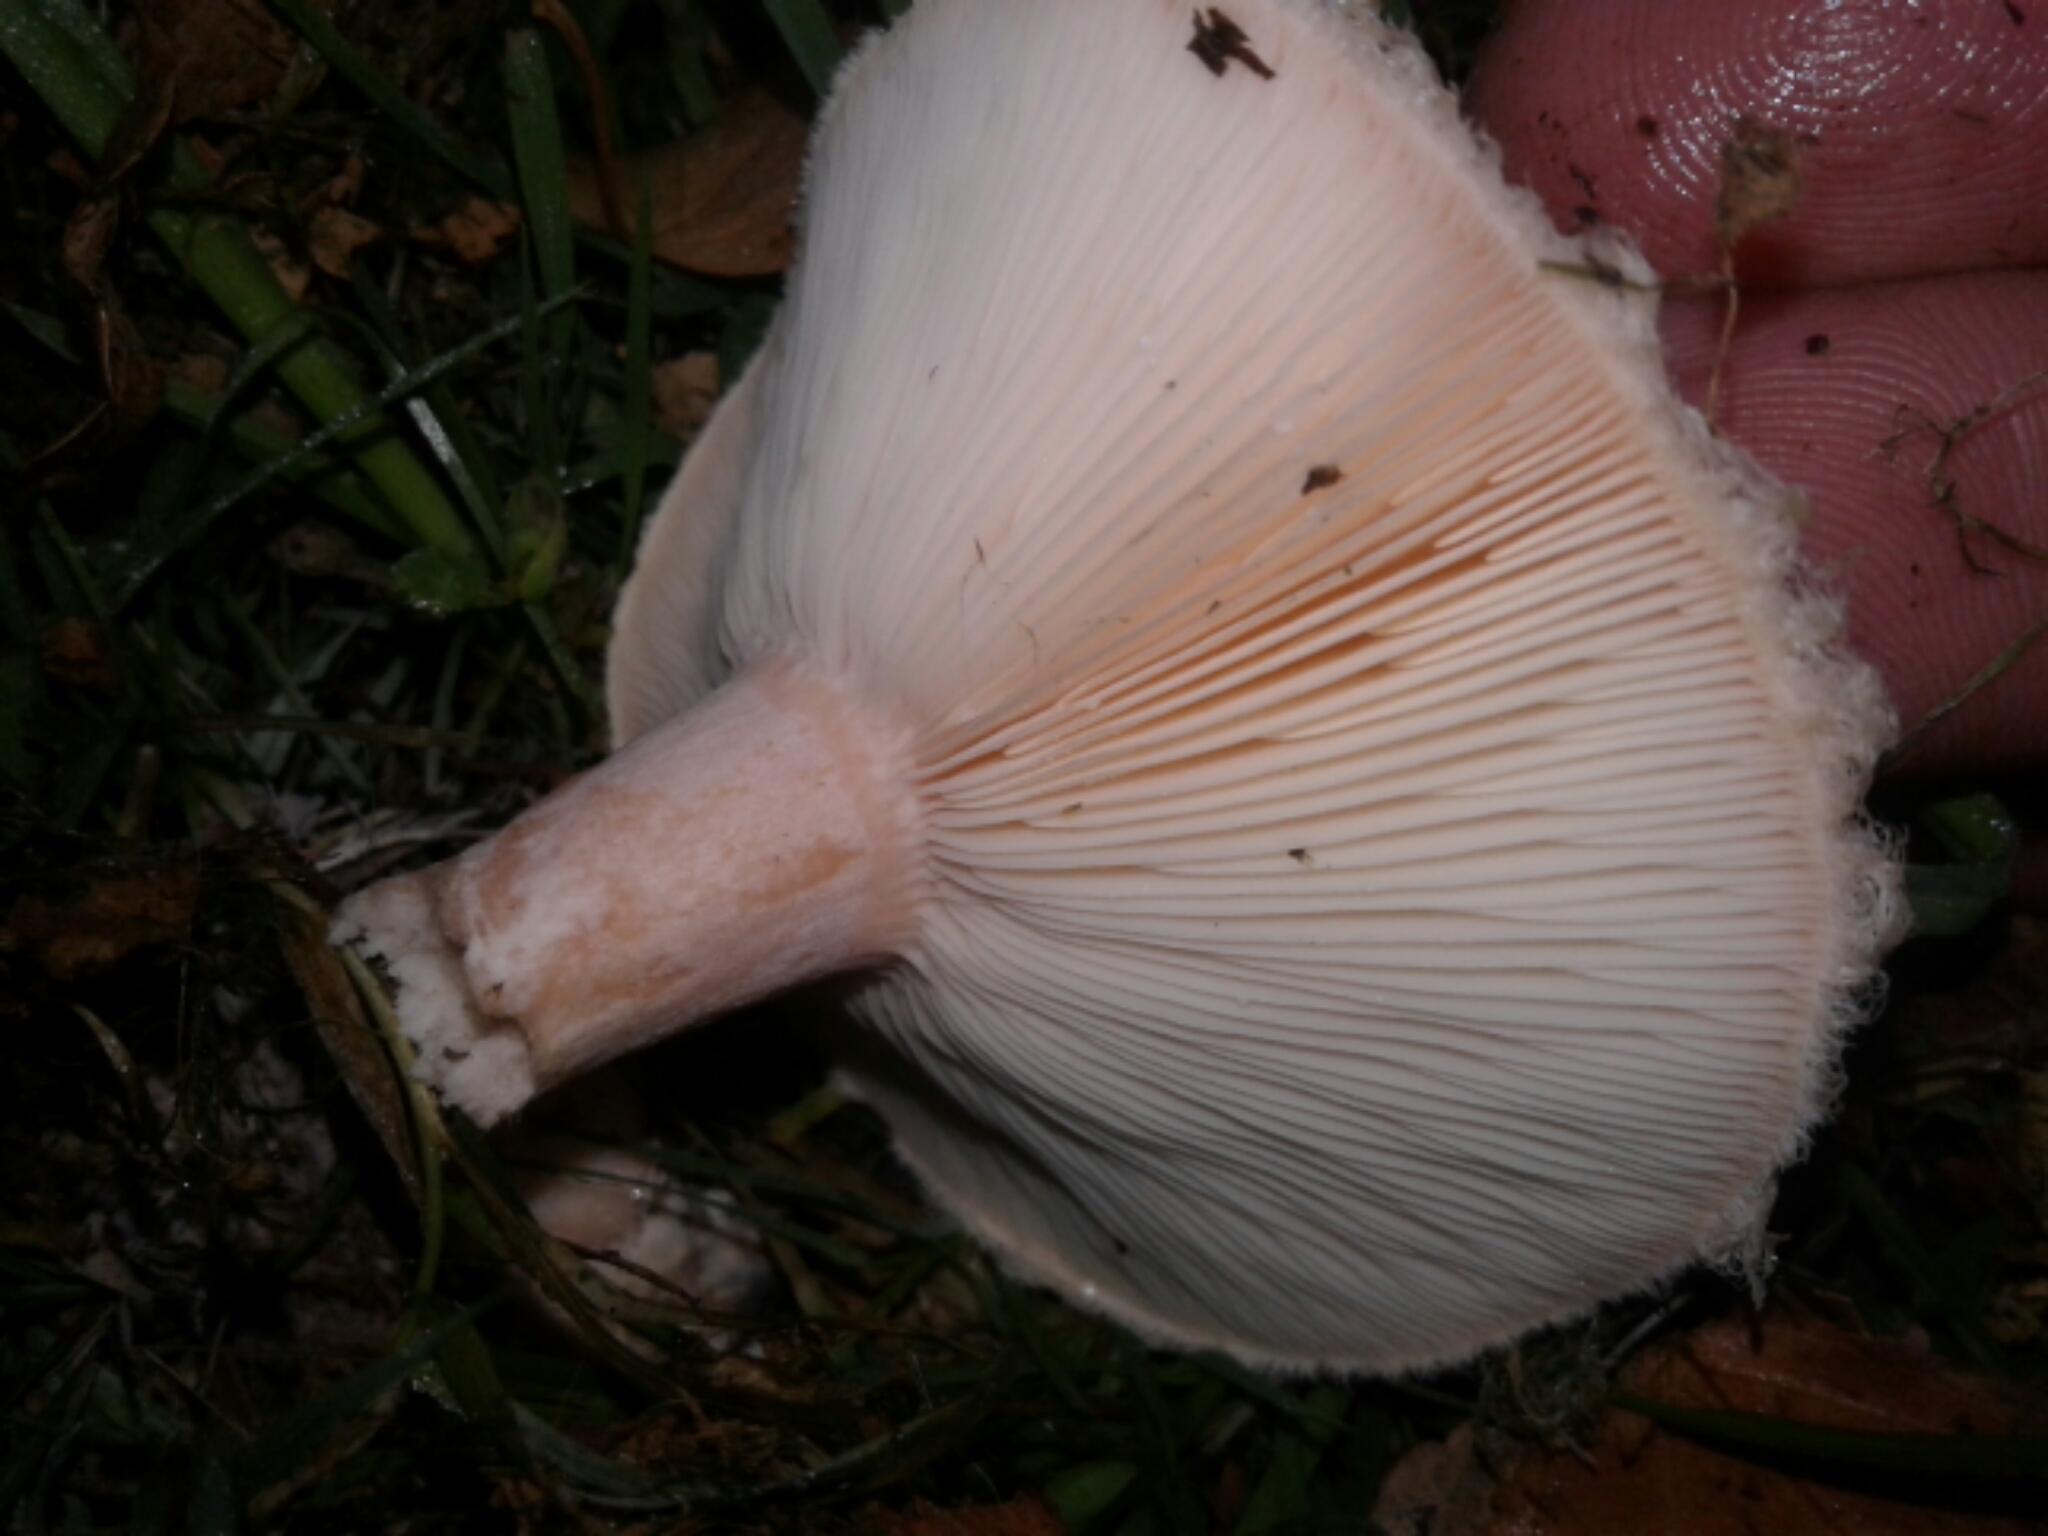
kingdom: Fungi
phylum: Basidiomycota
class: Agaricomycetes
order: Russulales
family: Russulaceae
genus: Lactarius
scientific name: Lactarius pubescens
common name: Bearded milkcap
